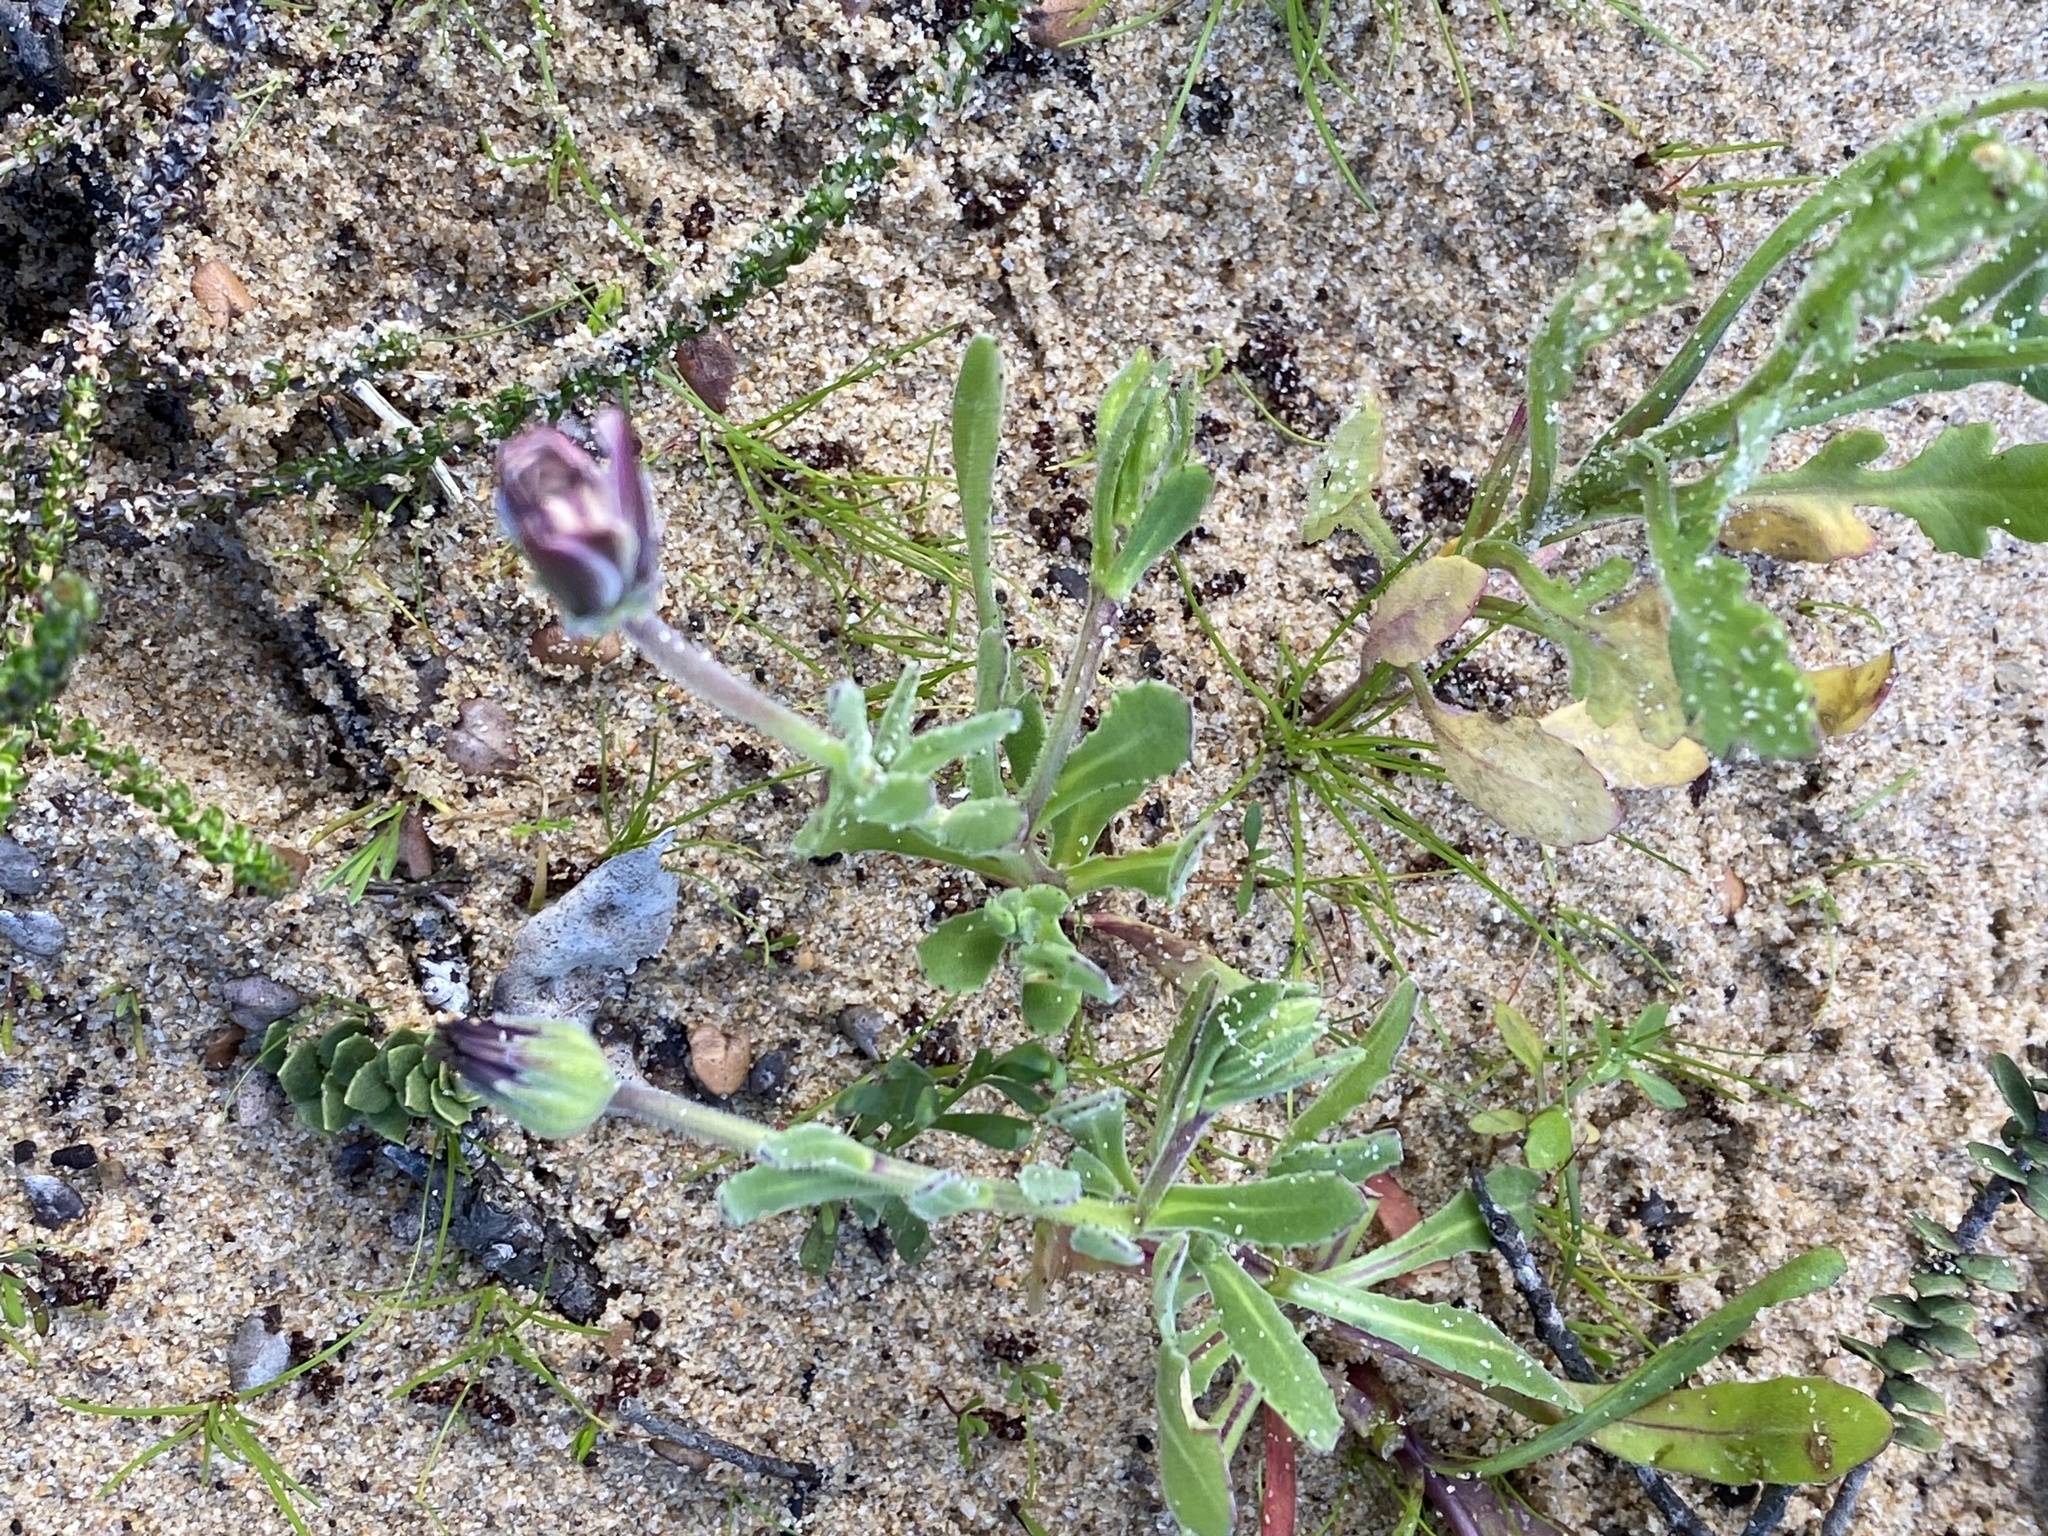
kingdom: Plantae
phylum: Tracheophyta
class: Magnoliopsida
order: Asterales
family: Asteraceae
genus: Dimorphotheca
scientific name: Dimorphotheca pluvialis
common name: Weather prophet
